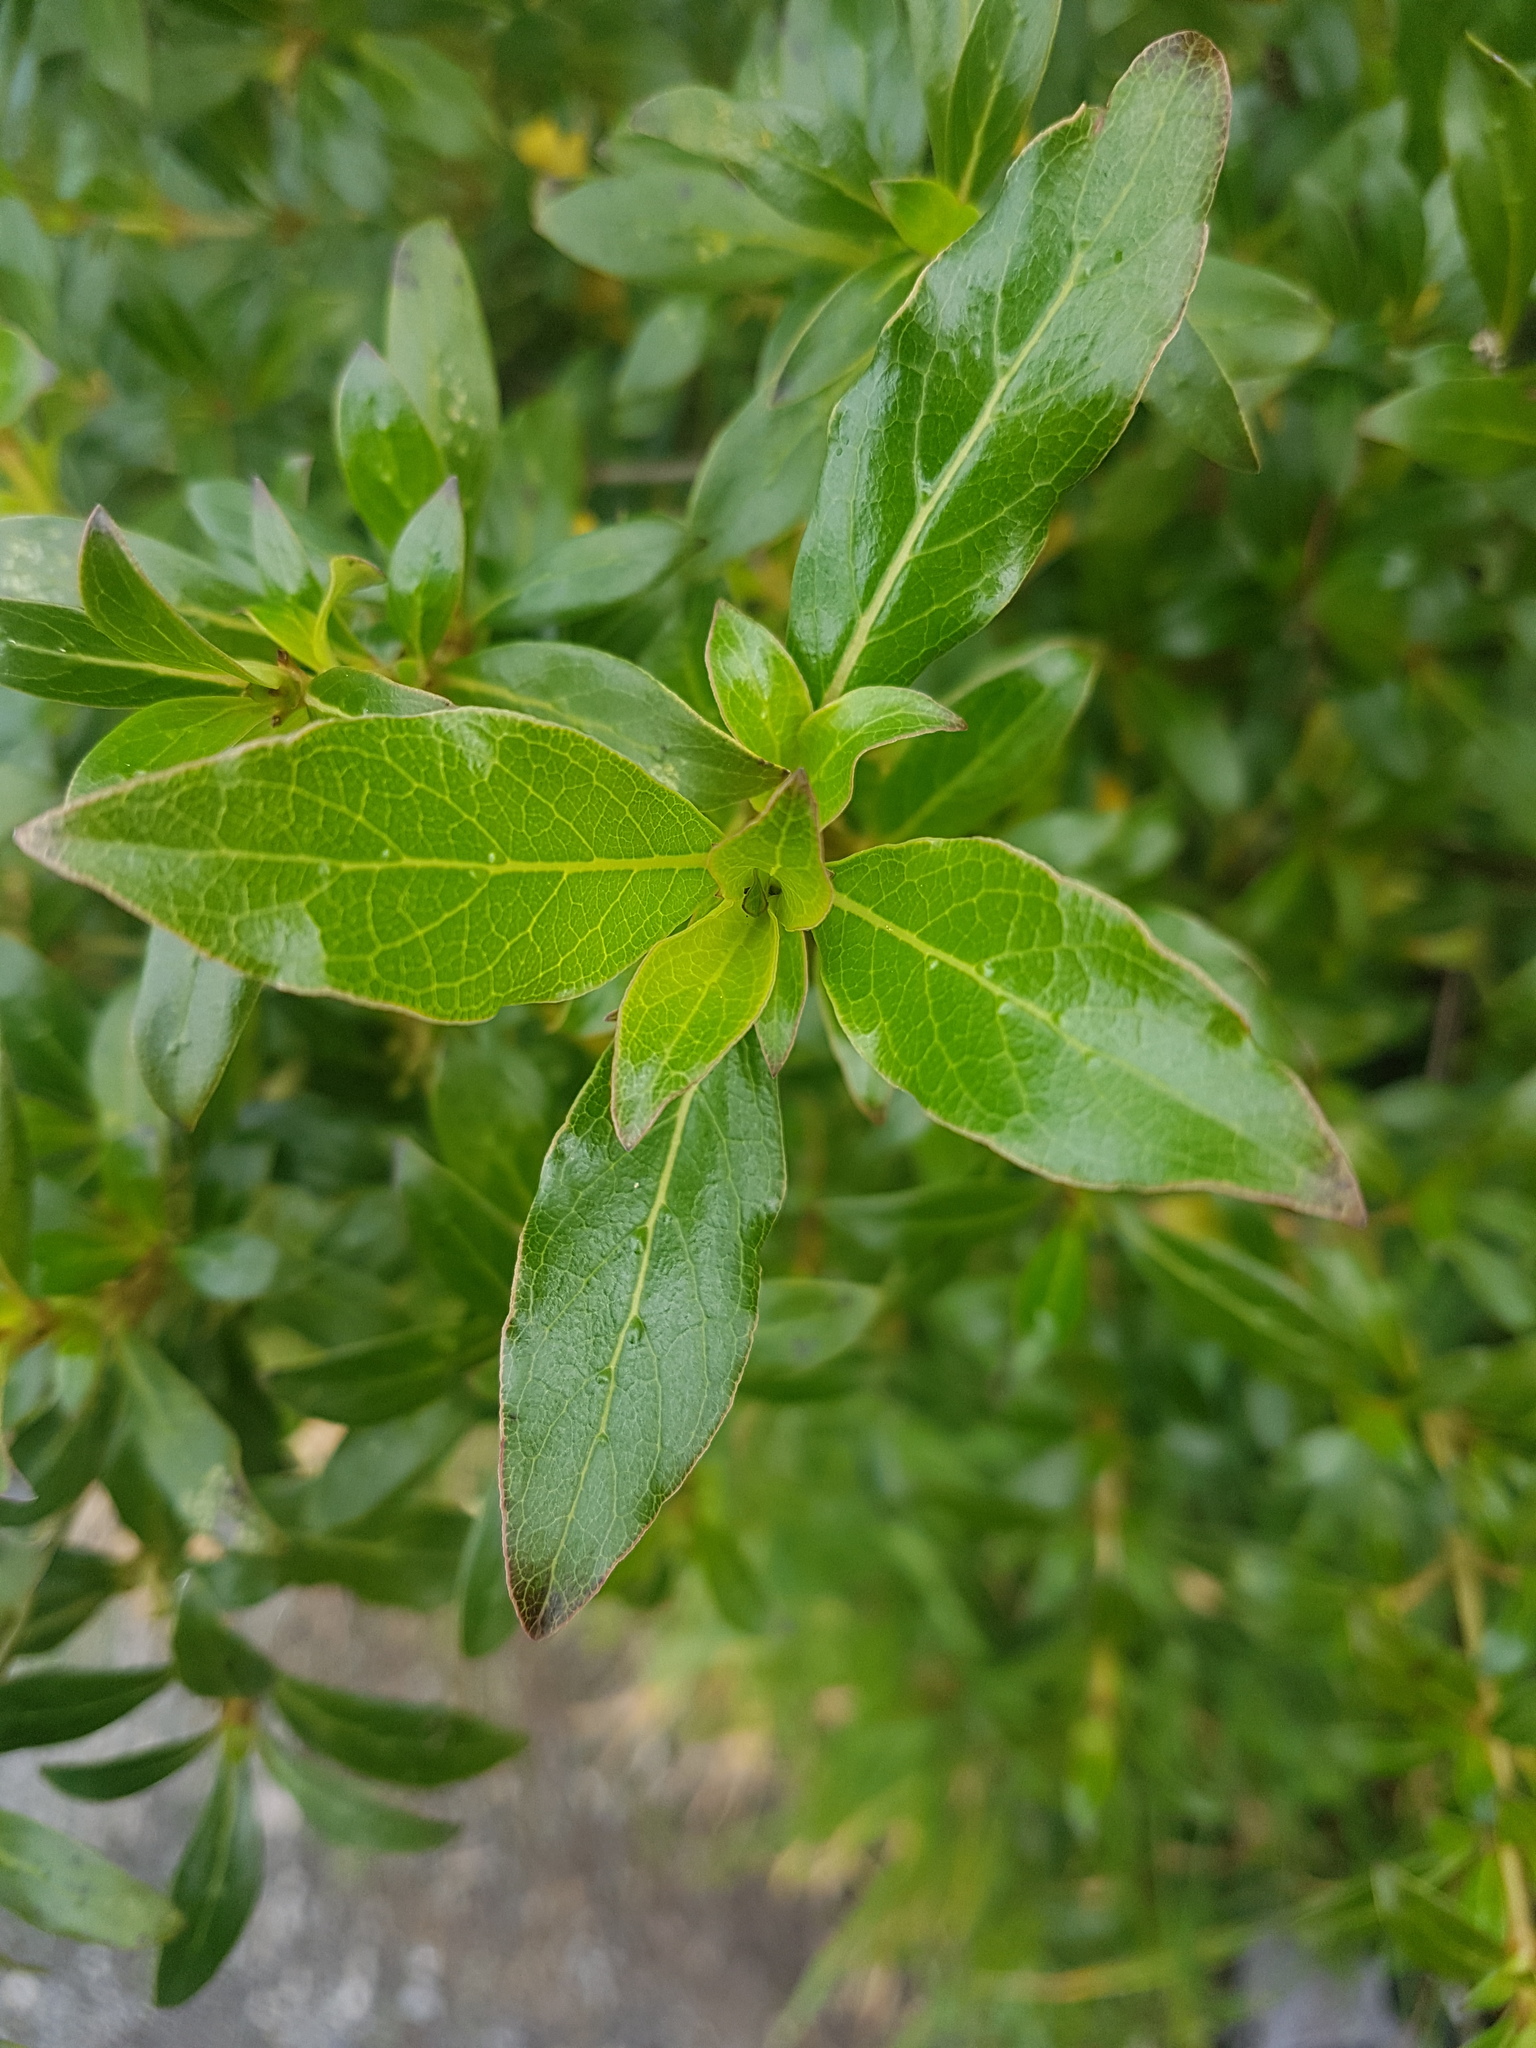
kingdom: Plantae
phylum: Tracheophyta
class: Magnoliopsida
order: Gentianales
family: Rubiaceae
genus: Coprosma
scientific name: Coprosma robusta
